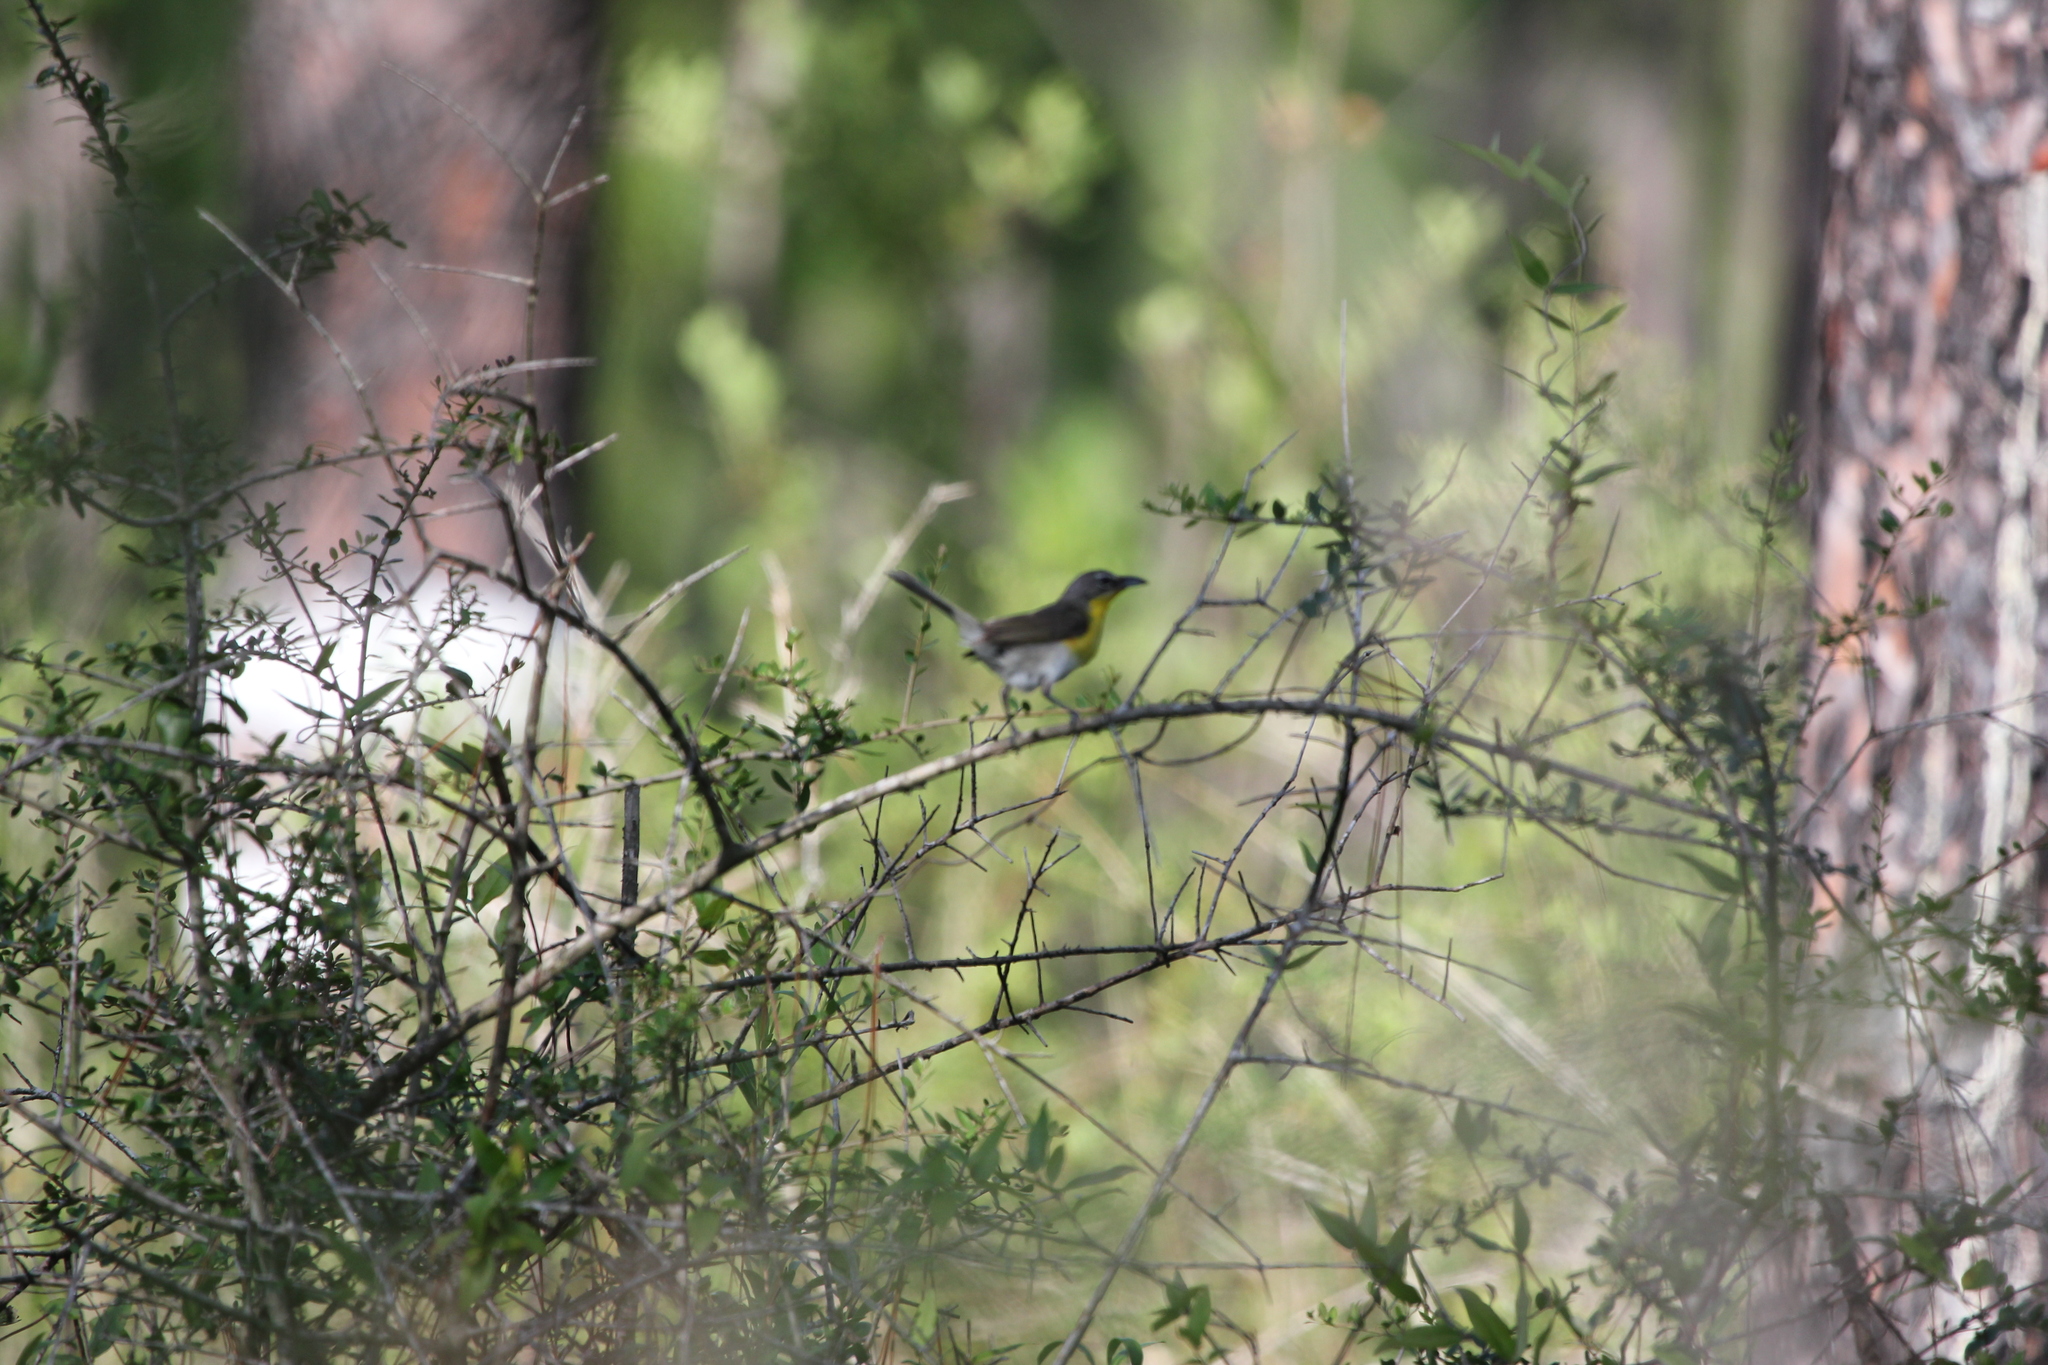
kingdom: Animalia
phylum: Chordata
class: Aves
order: Passeriformes
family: Parulidae
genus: Icteria
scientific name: Icteria virens
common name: Yellow-breasted chat
